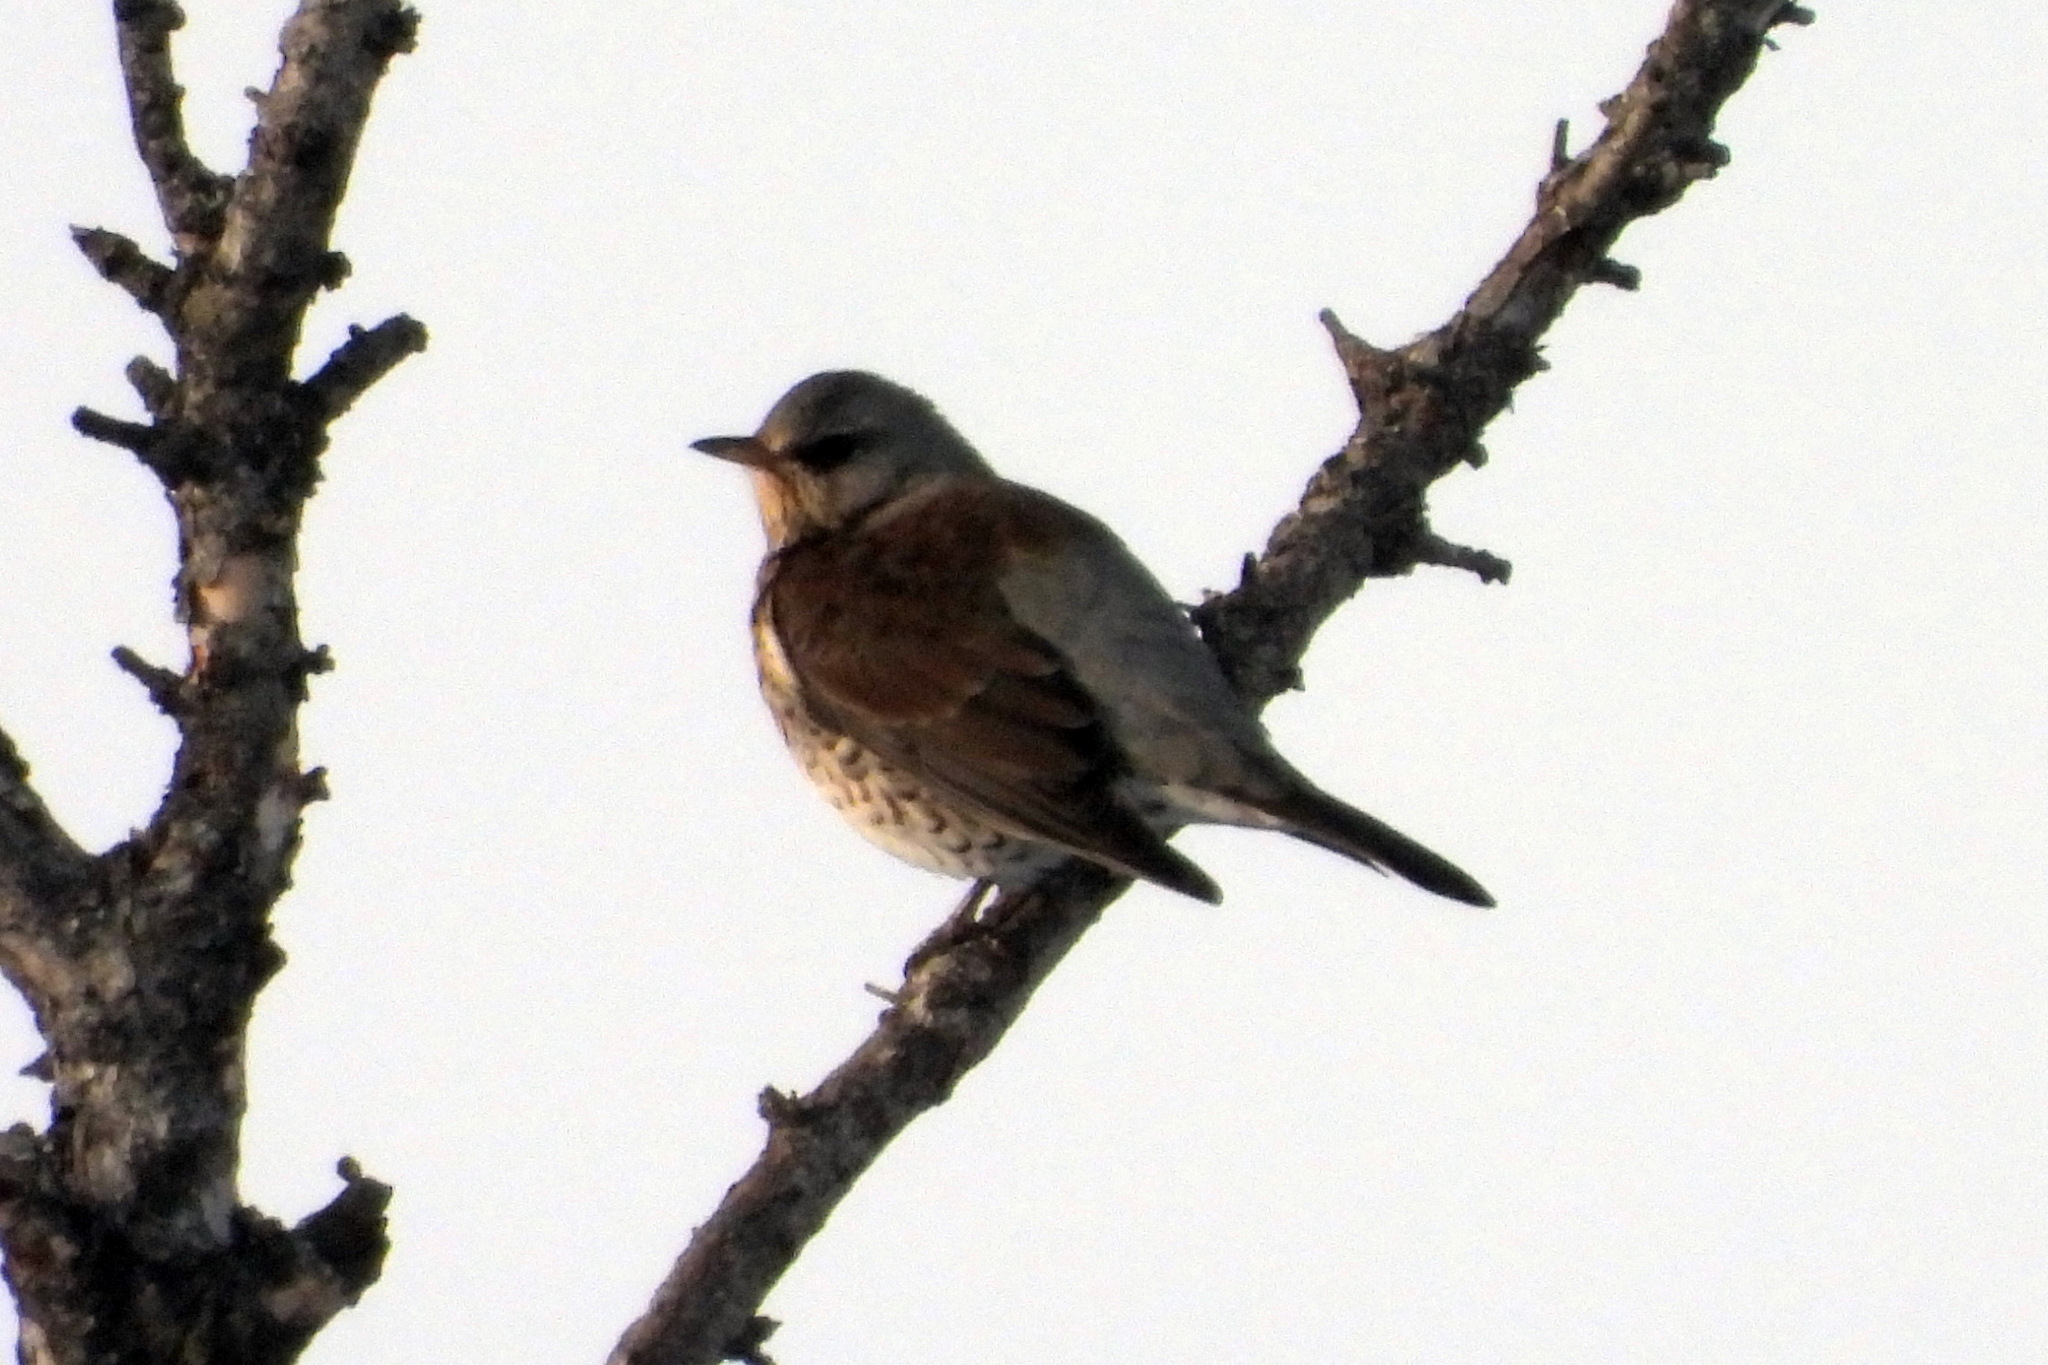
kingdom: Animalia
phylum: Chordata
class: Aves
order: Passeriformes
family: Turdidae
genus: Turdus
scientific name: Turdus pilaris
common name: Fieldfare
